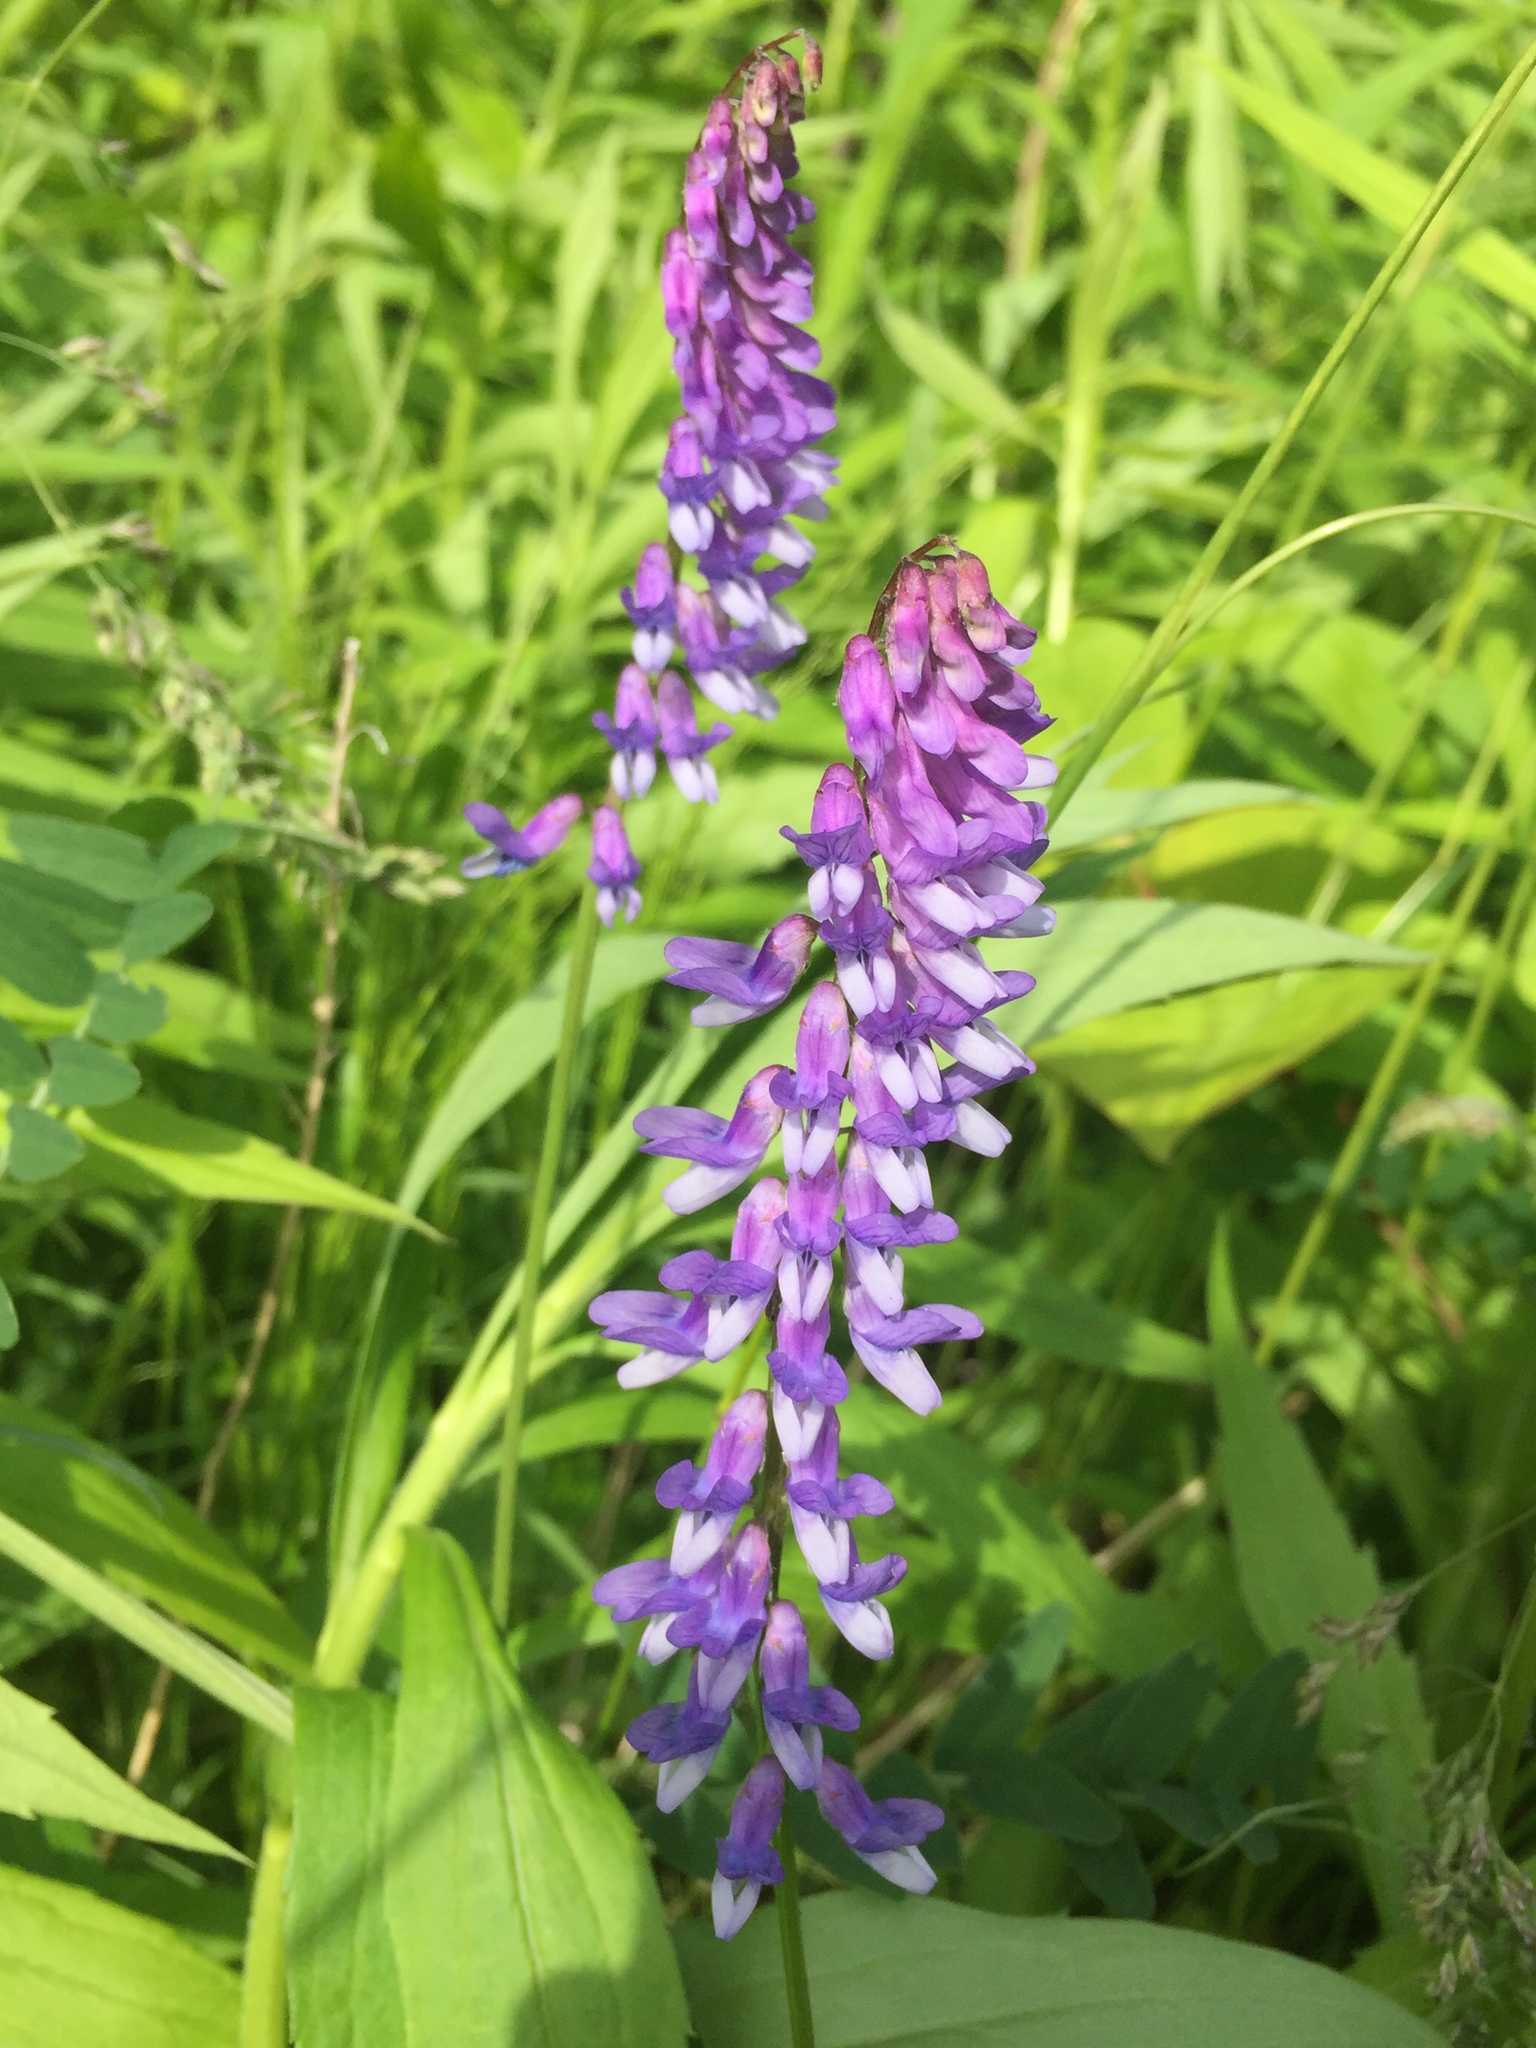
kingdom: Plantae
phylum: Tracheophyta
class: Magnoliopsida
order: Fabales
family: Fabaceae
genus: Vicia
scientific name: Vicia cracca
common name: Bird vetch
